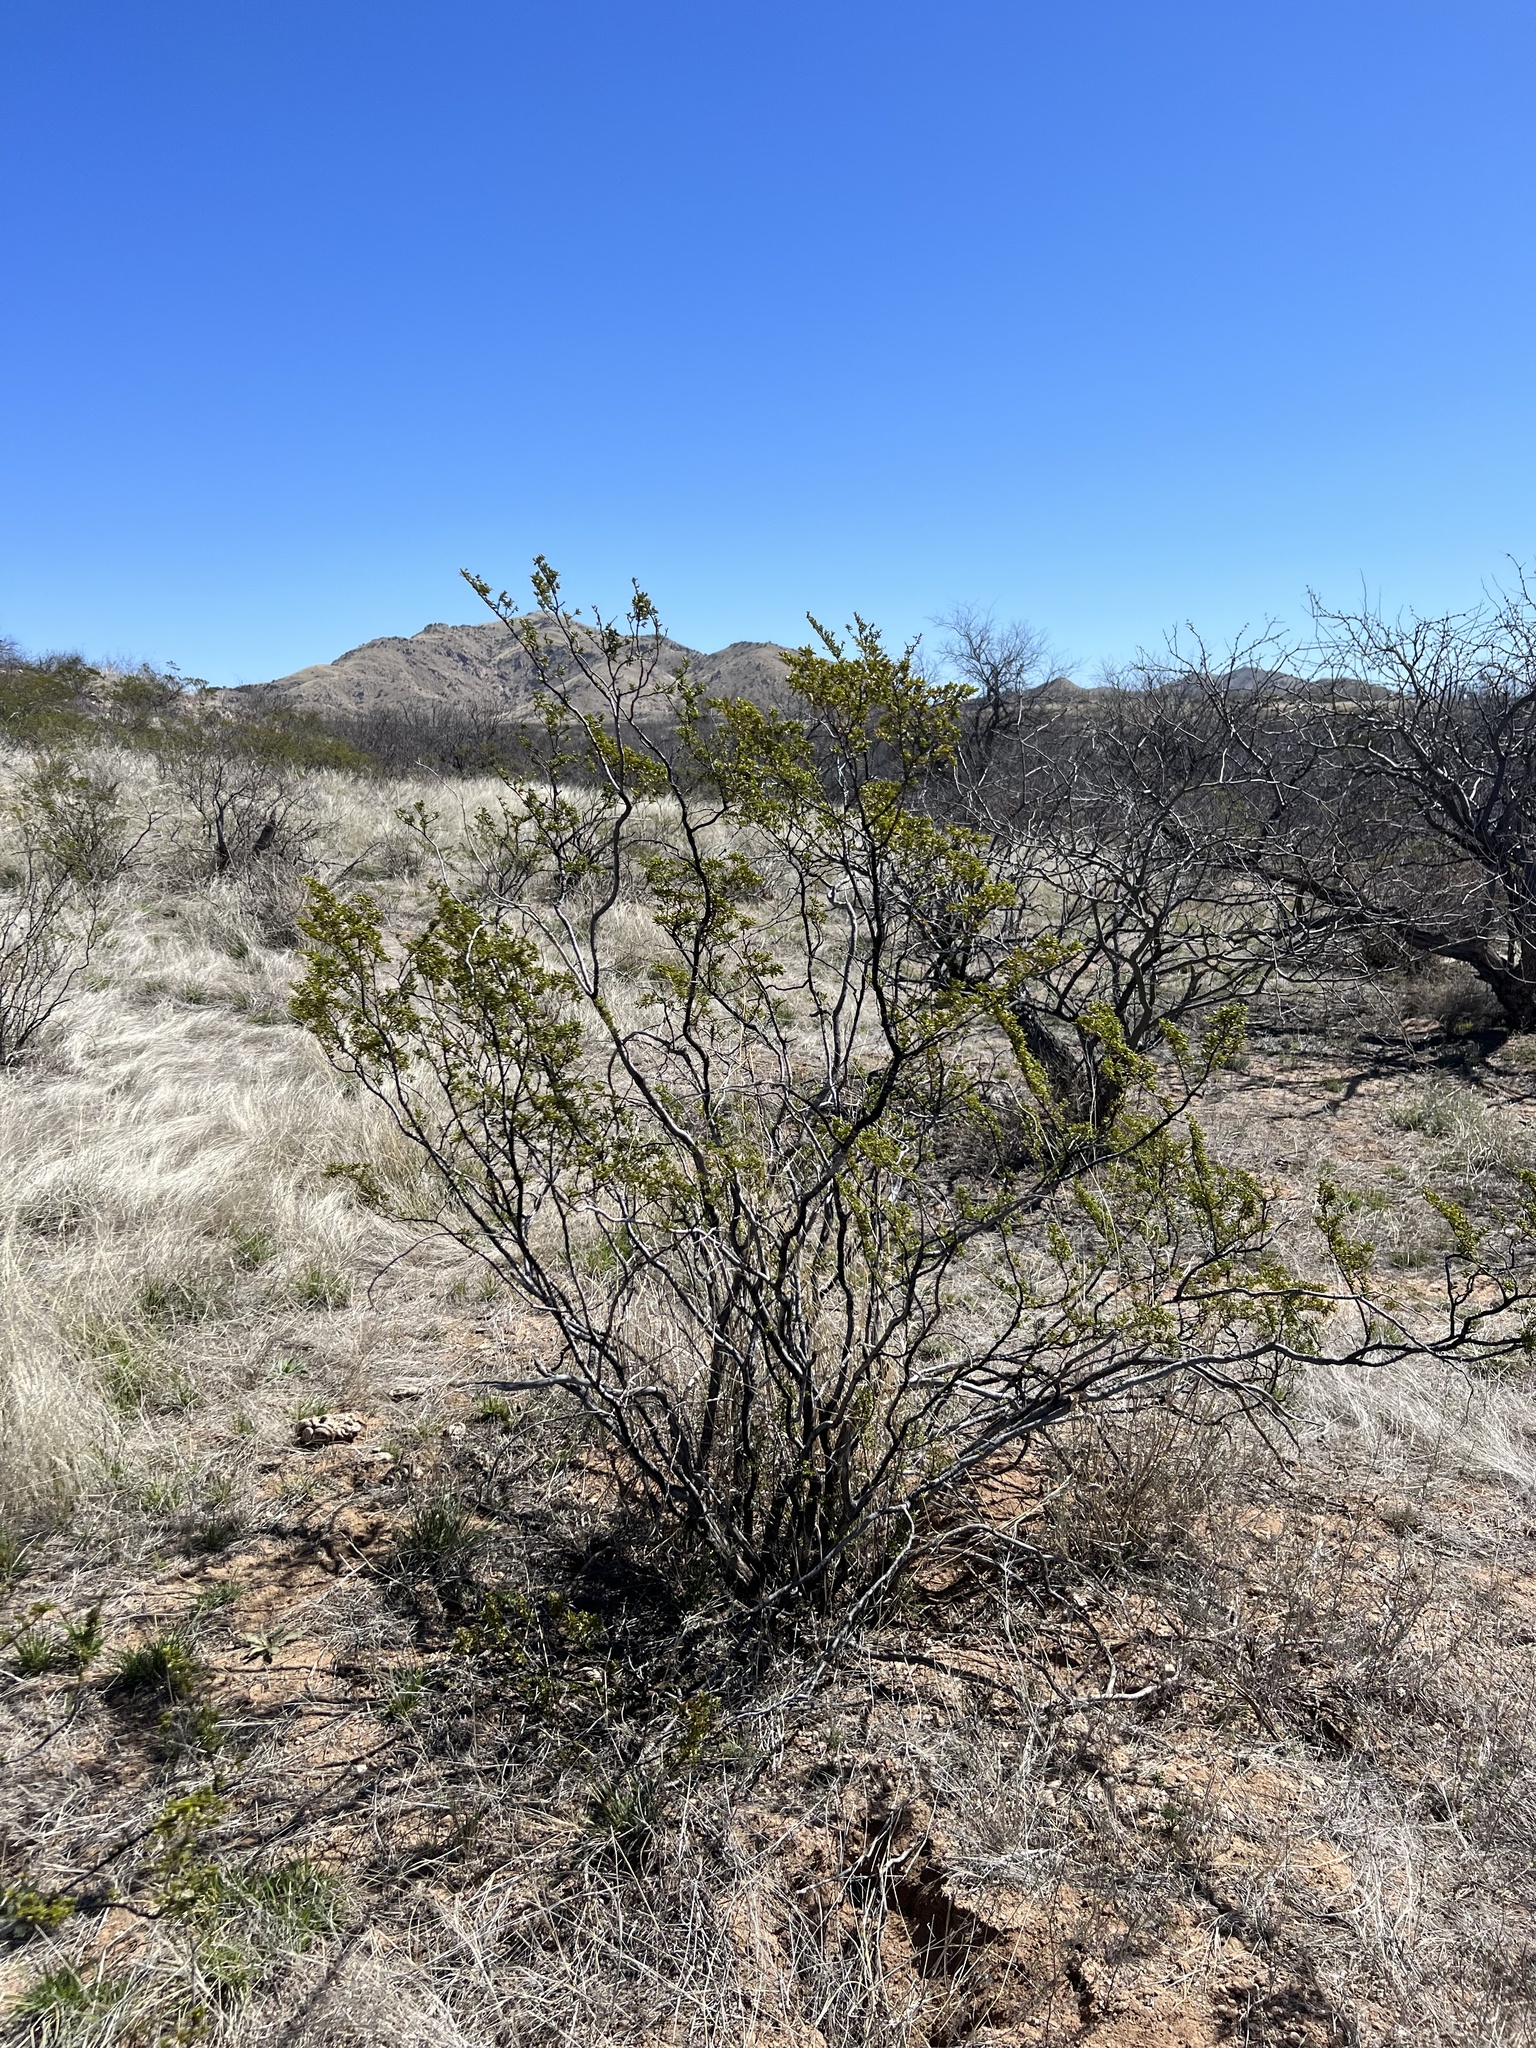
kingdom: Plantae
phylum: Tracheophyta
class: Magnoliopsida
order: Zygophyllales
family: Zygophyllaceae
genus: Larrea
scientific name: Larrea tridentata
